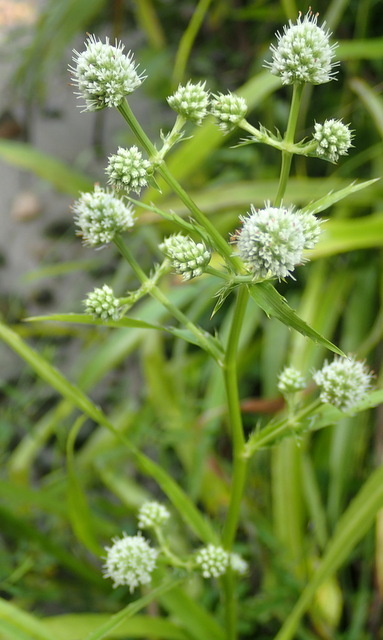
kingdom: Plantae
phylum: Tracheophyta
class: Magnoliopsida
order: Apiales
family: Apiaceae
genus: Eryngium
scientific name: Eryngium yuccifolium
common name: Button eryngo
